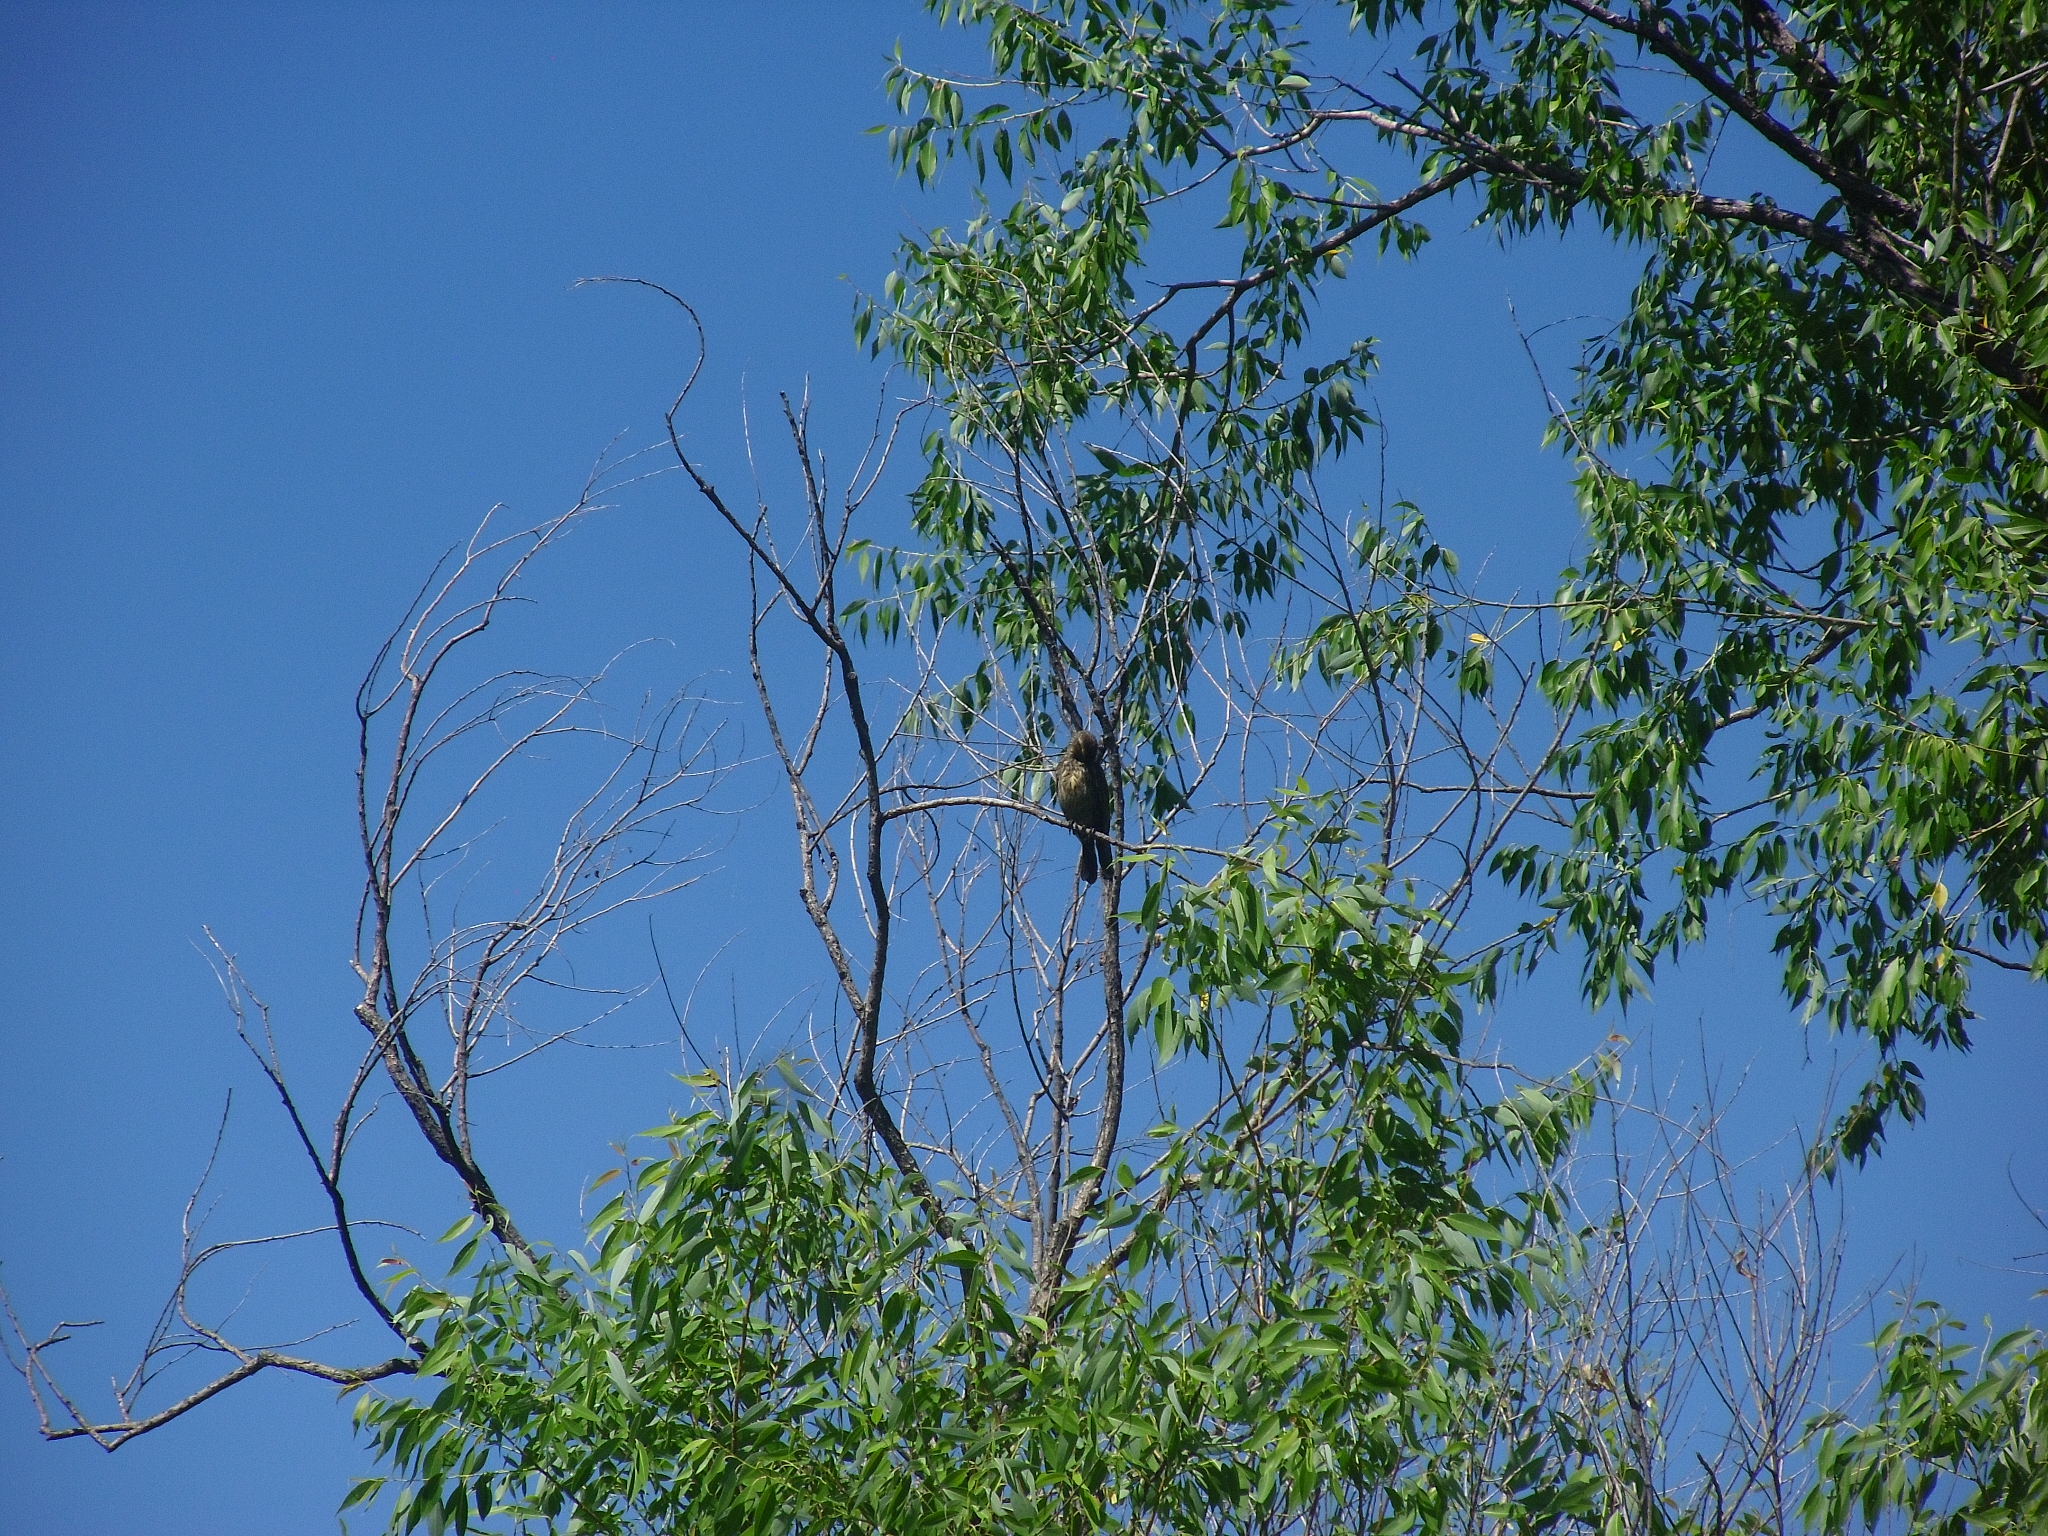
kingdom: Animalia
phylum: Chordata
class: Aves
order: Passeriformes
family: Icteridae
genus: Agelaius
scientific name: Agelaius phoeniceus
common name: Red-winged blackbird
